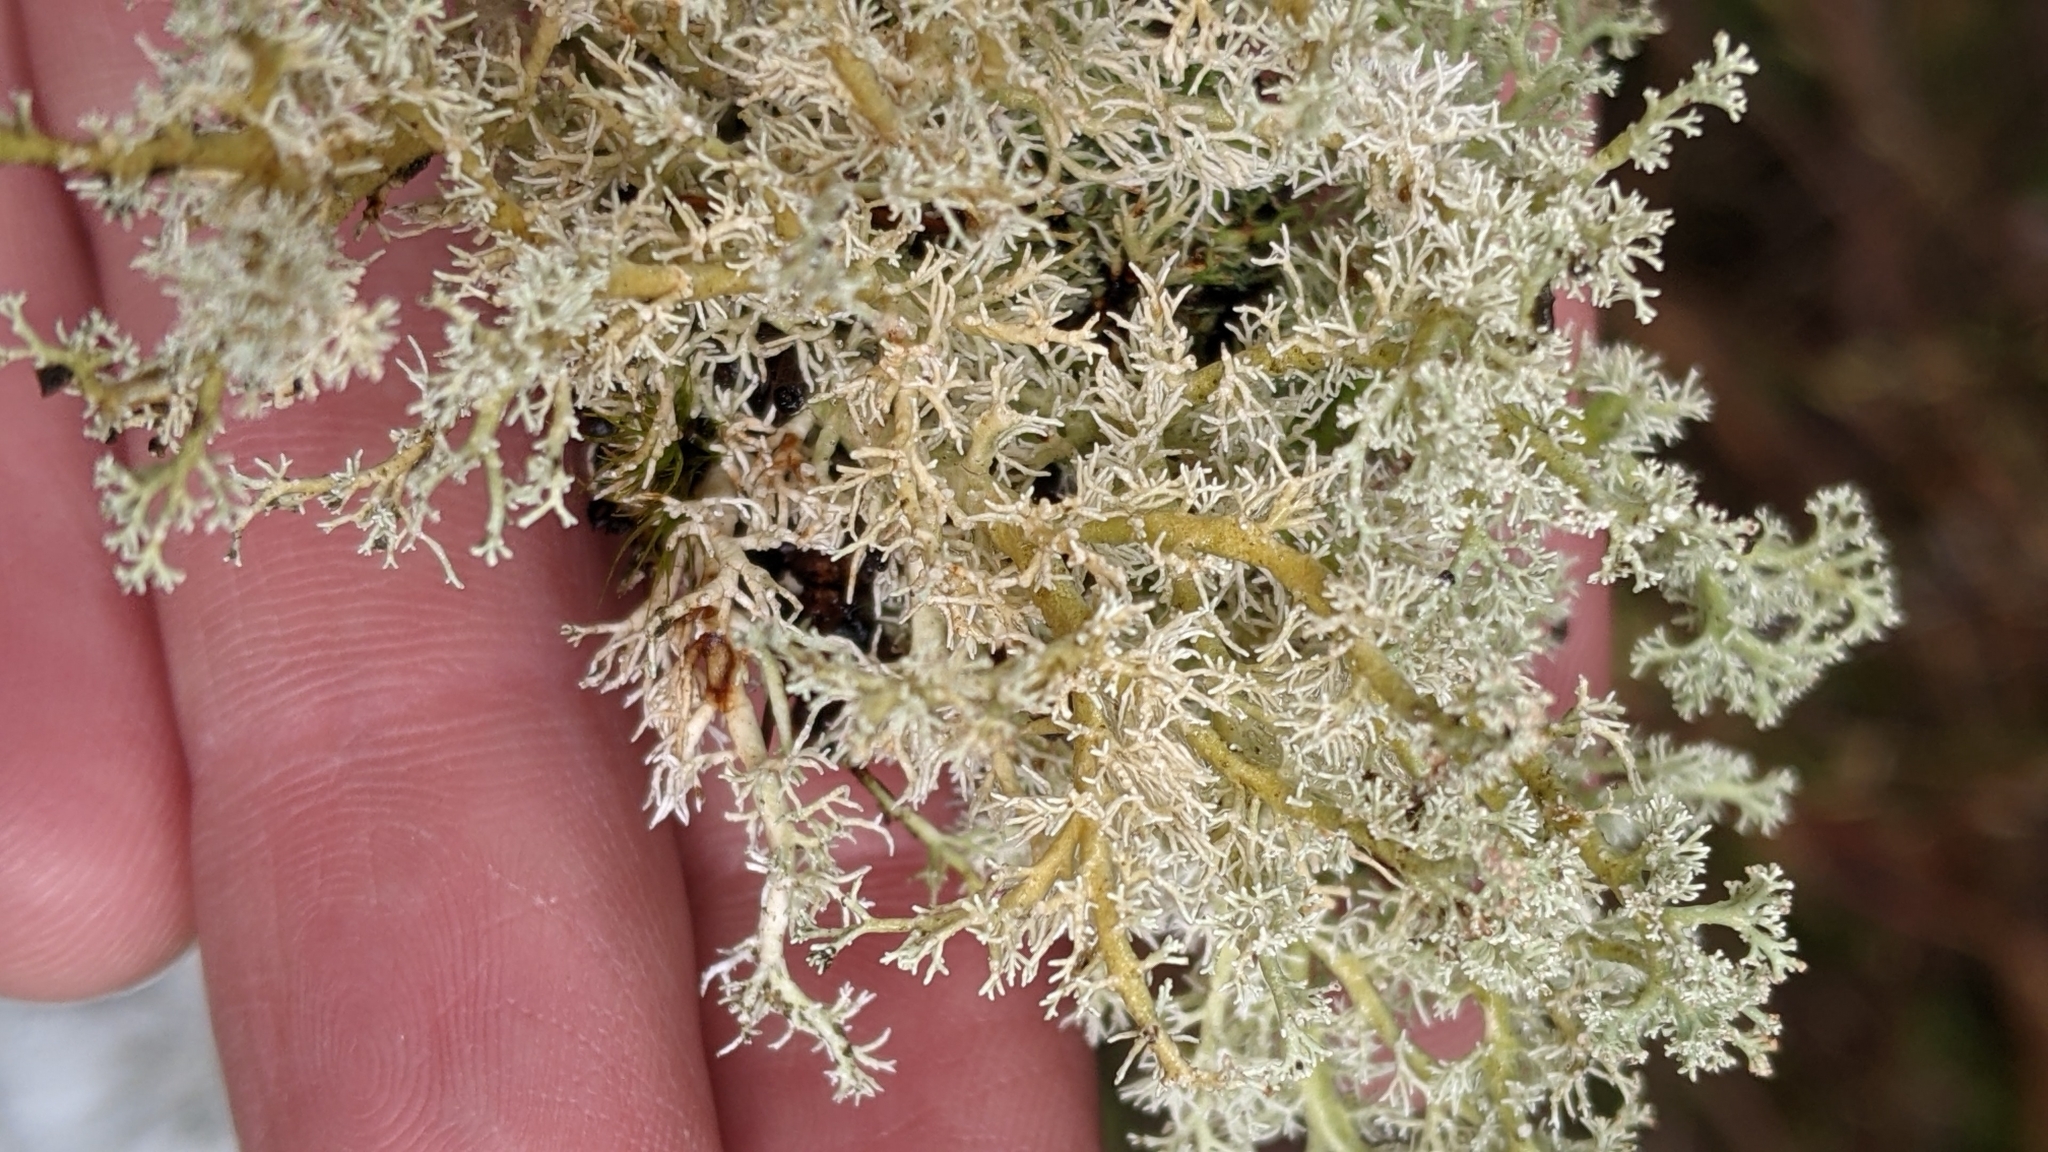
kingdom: Fungi
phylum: Ascomycota
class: Lecanoromycetes
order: Lecanorales
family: Sphaerophoraceae
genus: Sphaerophorus
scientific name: Sphaerophorus globosus
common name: Globe ball lichen
